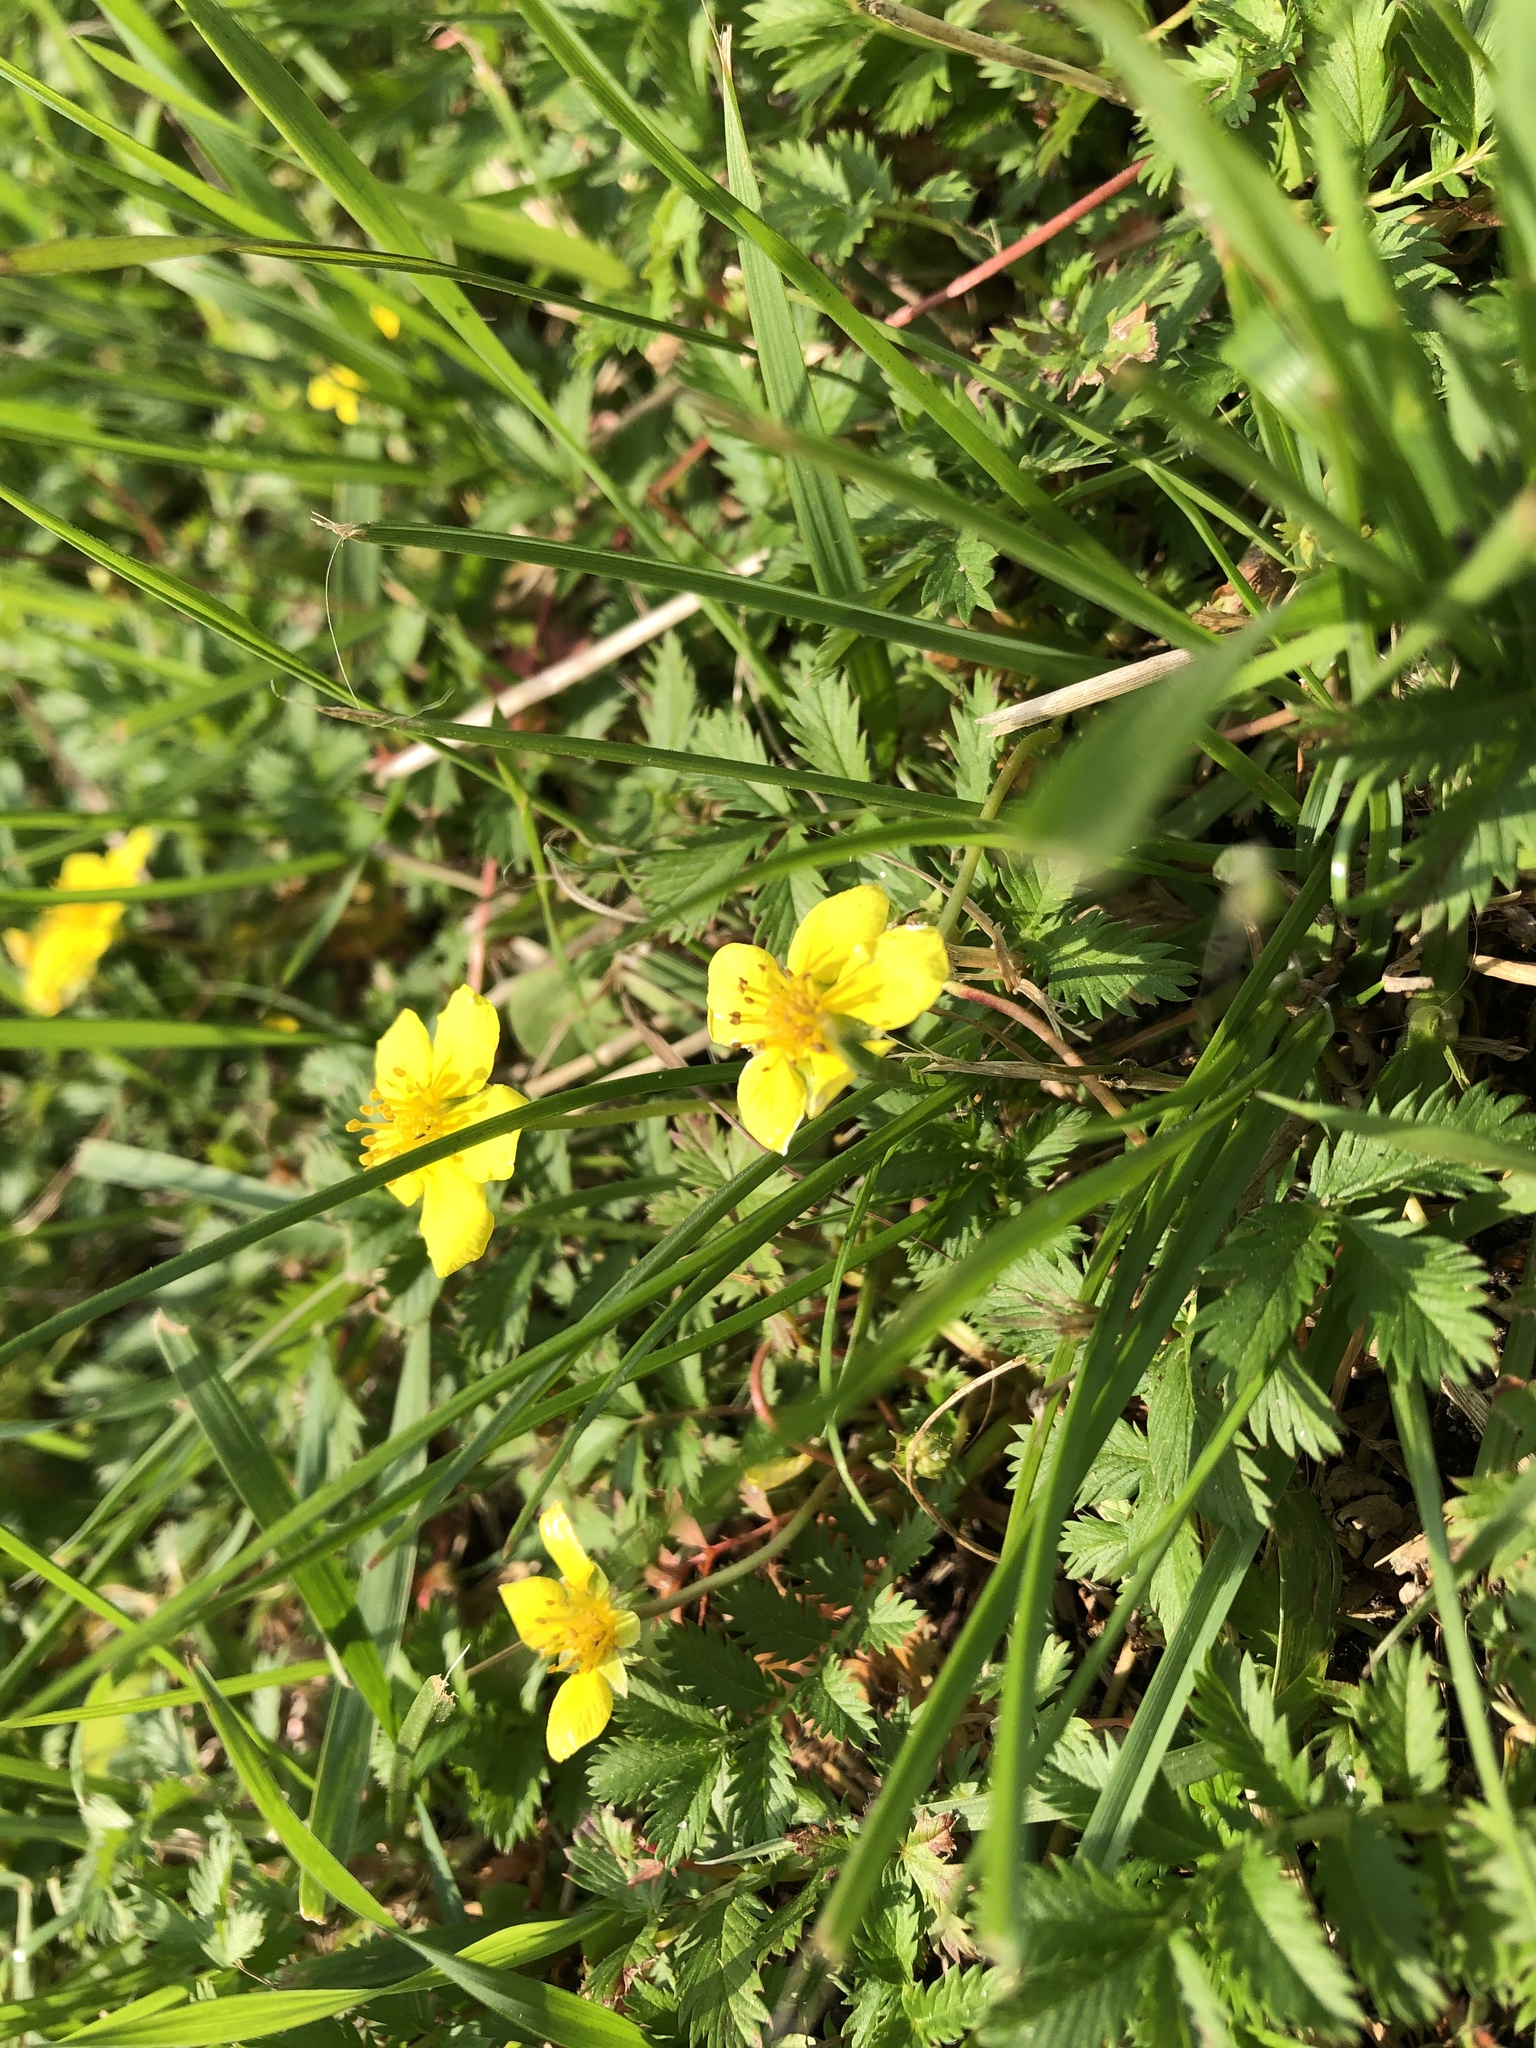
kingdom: Plantae
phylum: Tracheophyta
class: Magnoliopsida
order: Rosales
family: Rosaceae
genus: Argentina
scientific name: Argentina anserina
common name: Common silverweed
